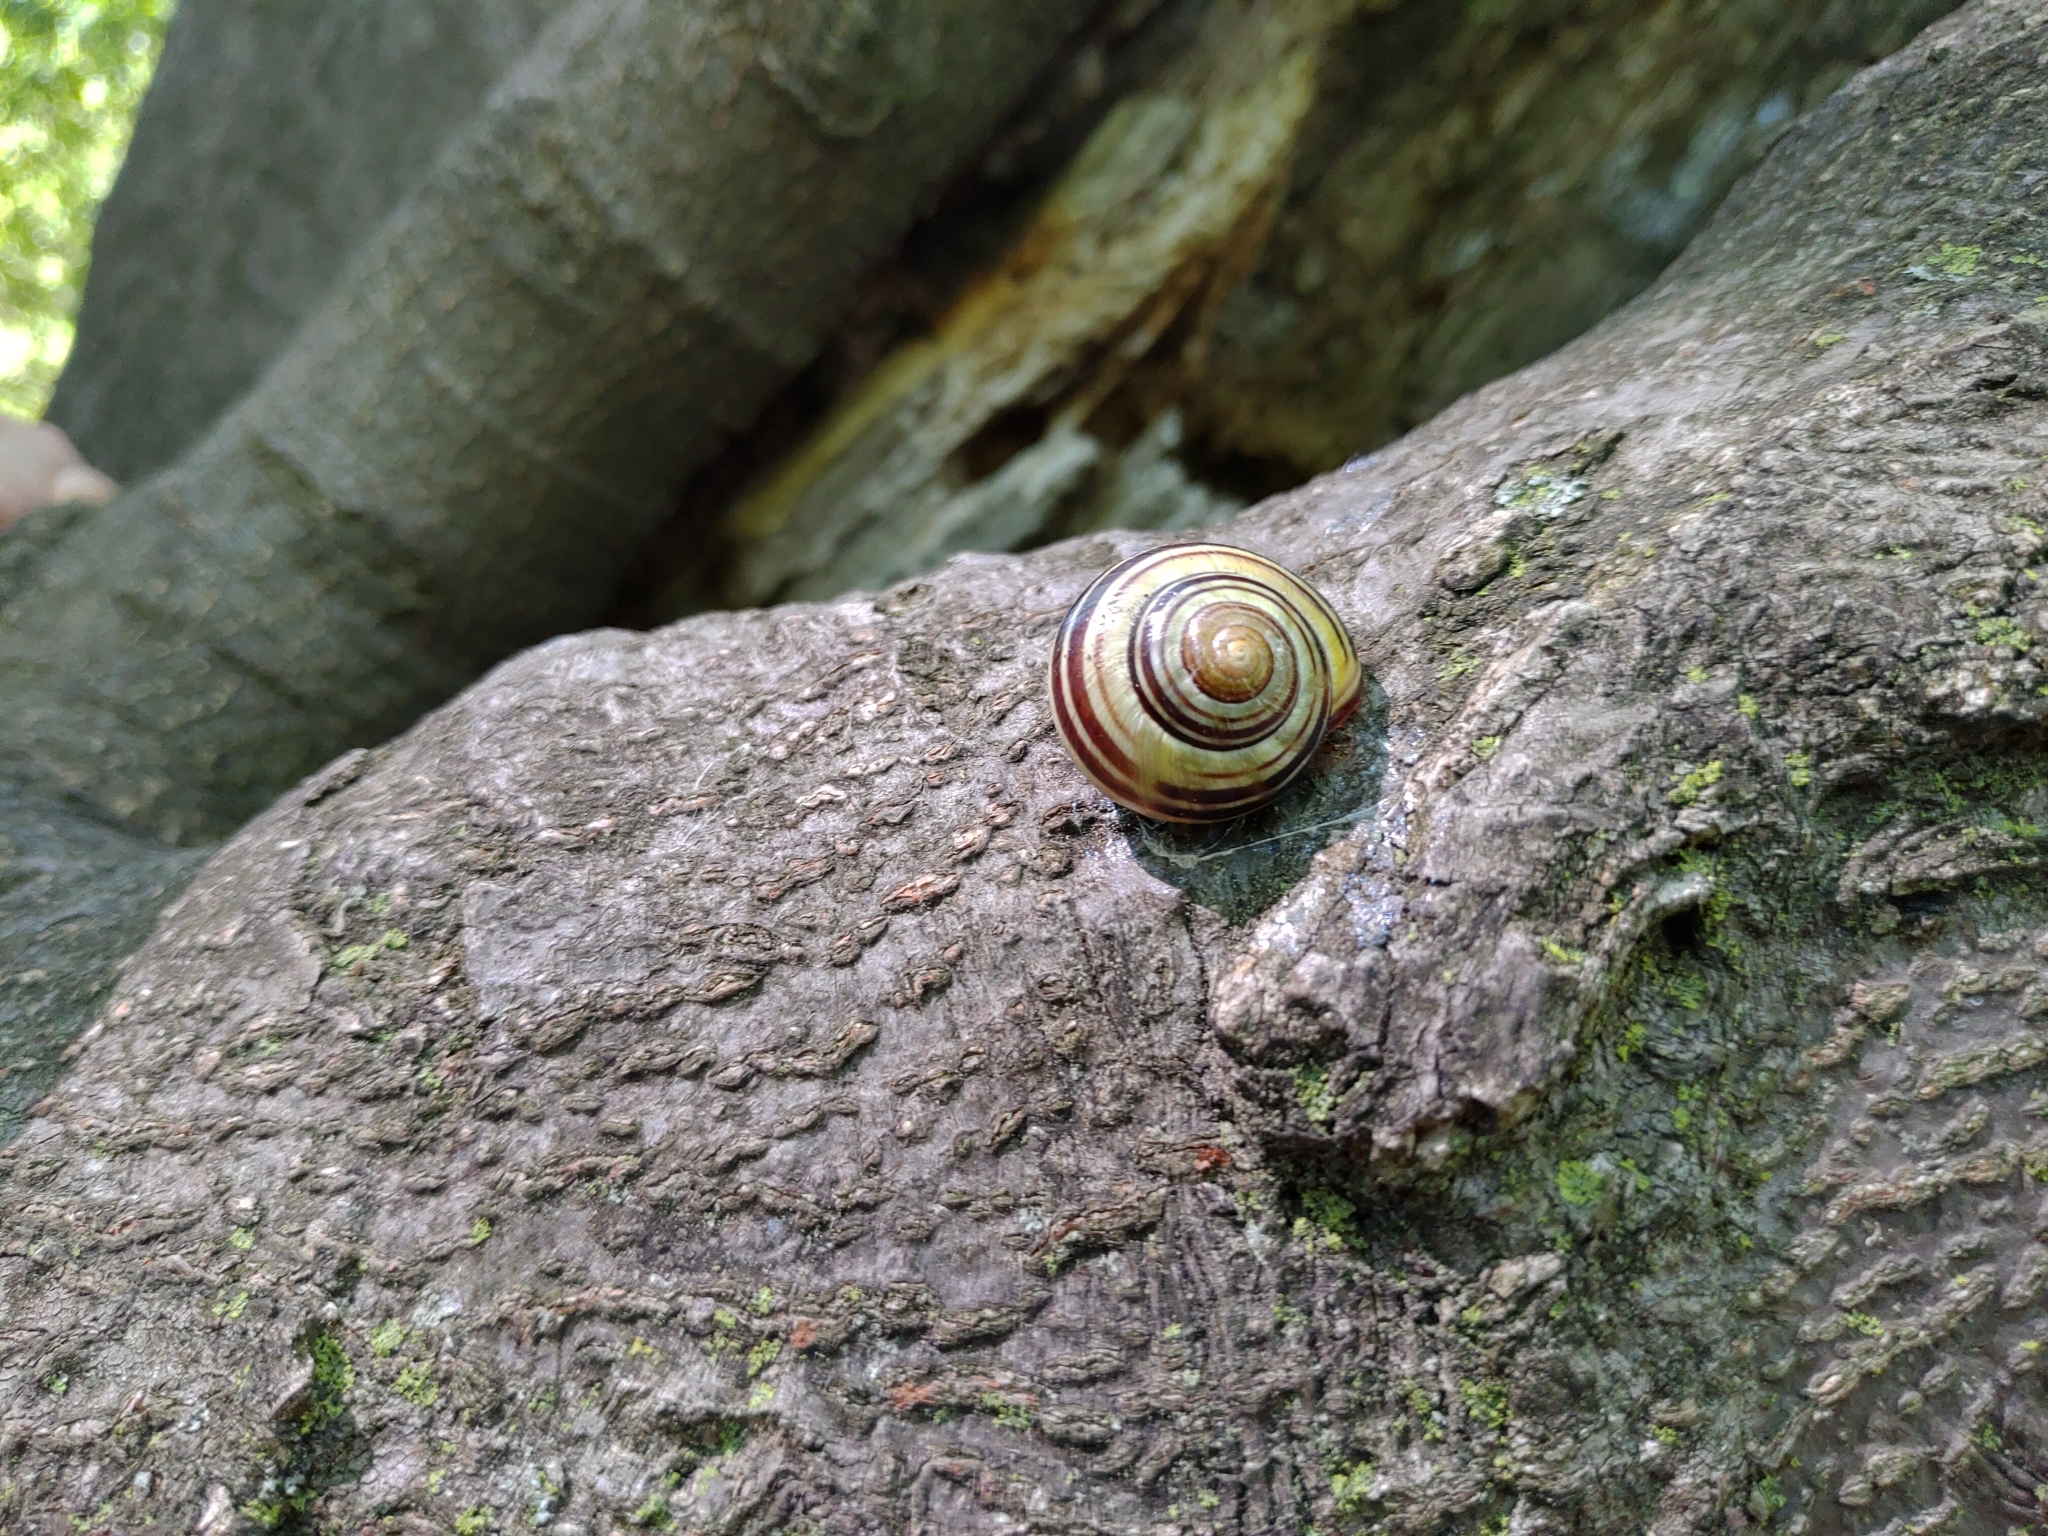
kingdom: Animalia
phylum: Mollusca
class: Gastropoda
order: Stylommatophora
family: Helicidae
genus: Cepaea
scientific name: Cepaea nemoralis
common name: Grovesnail
